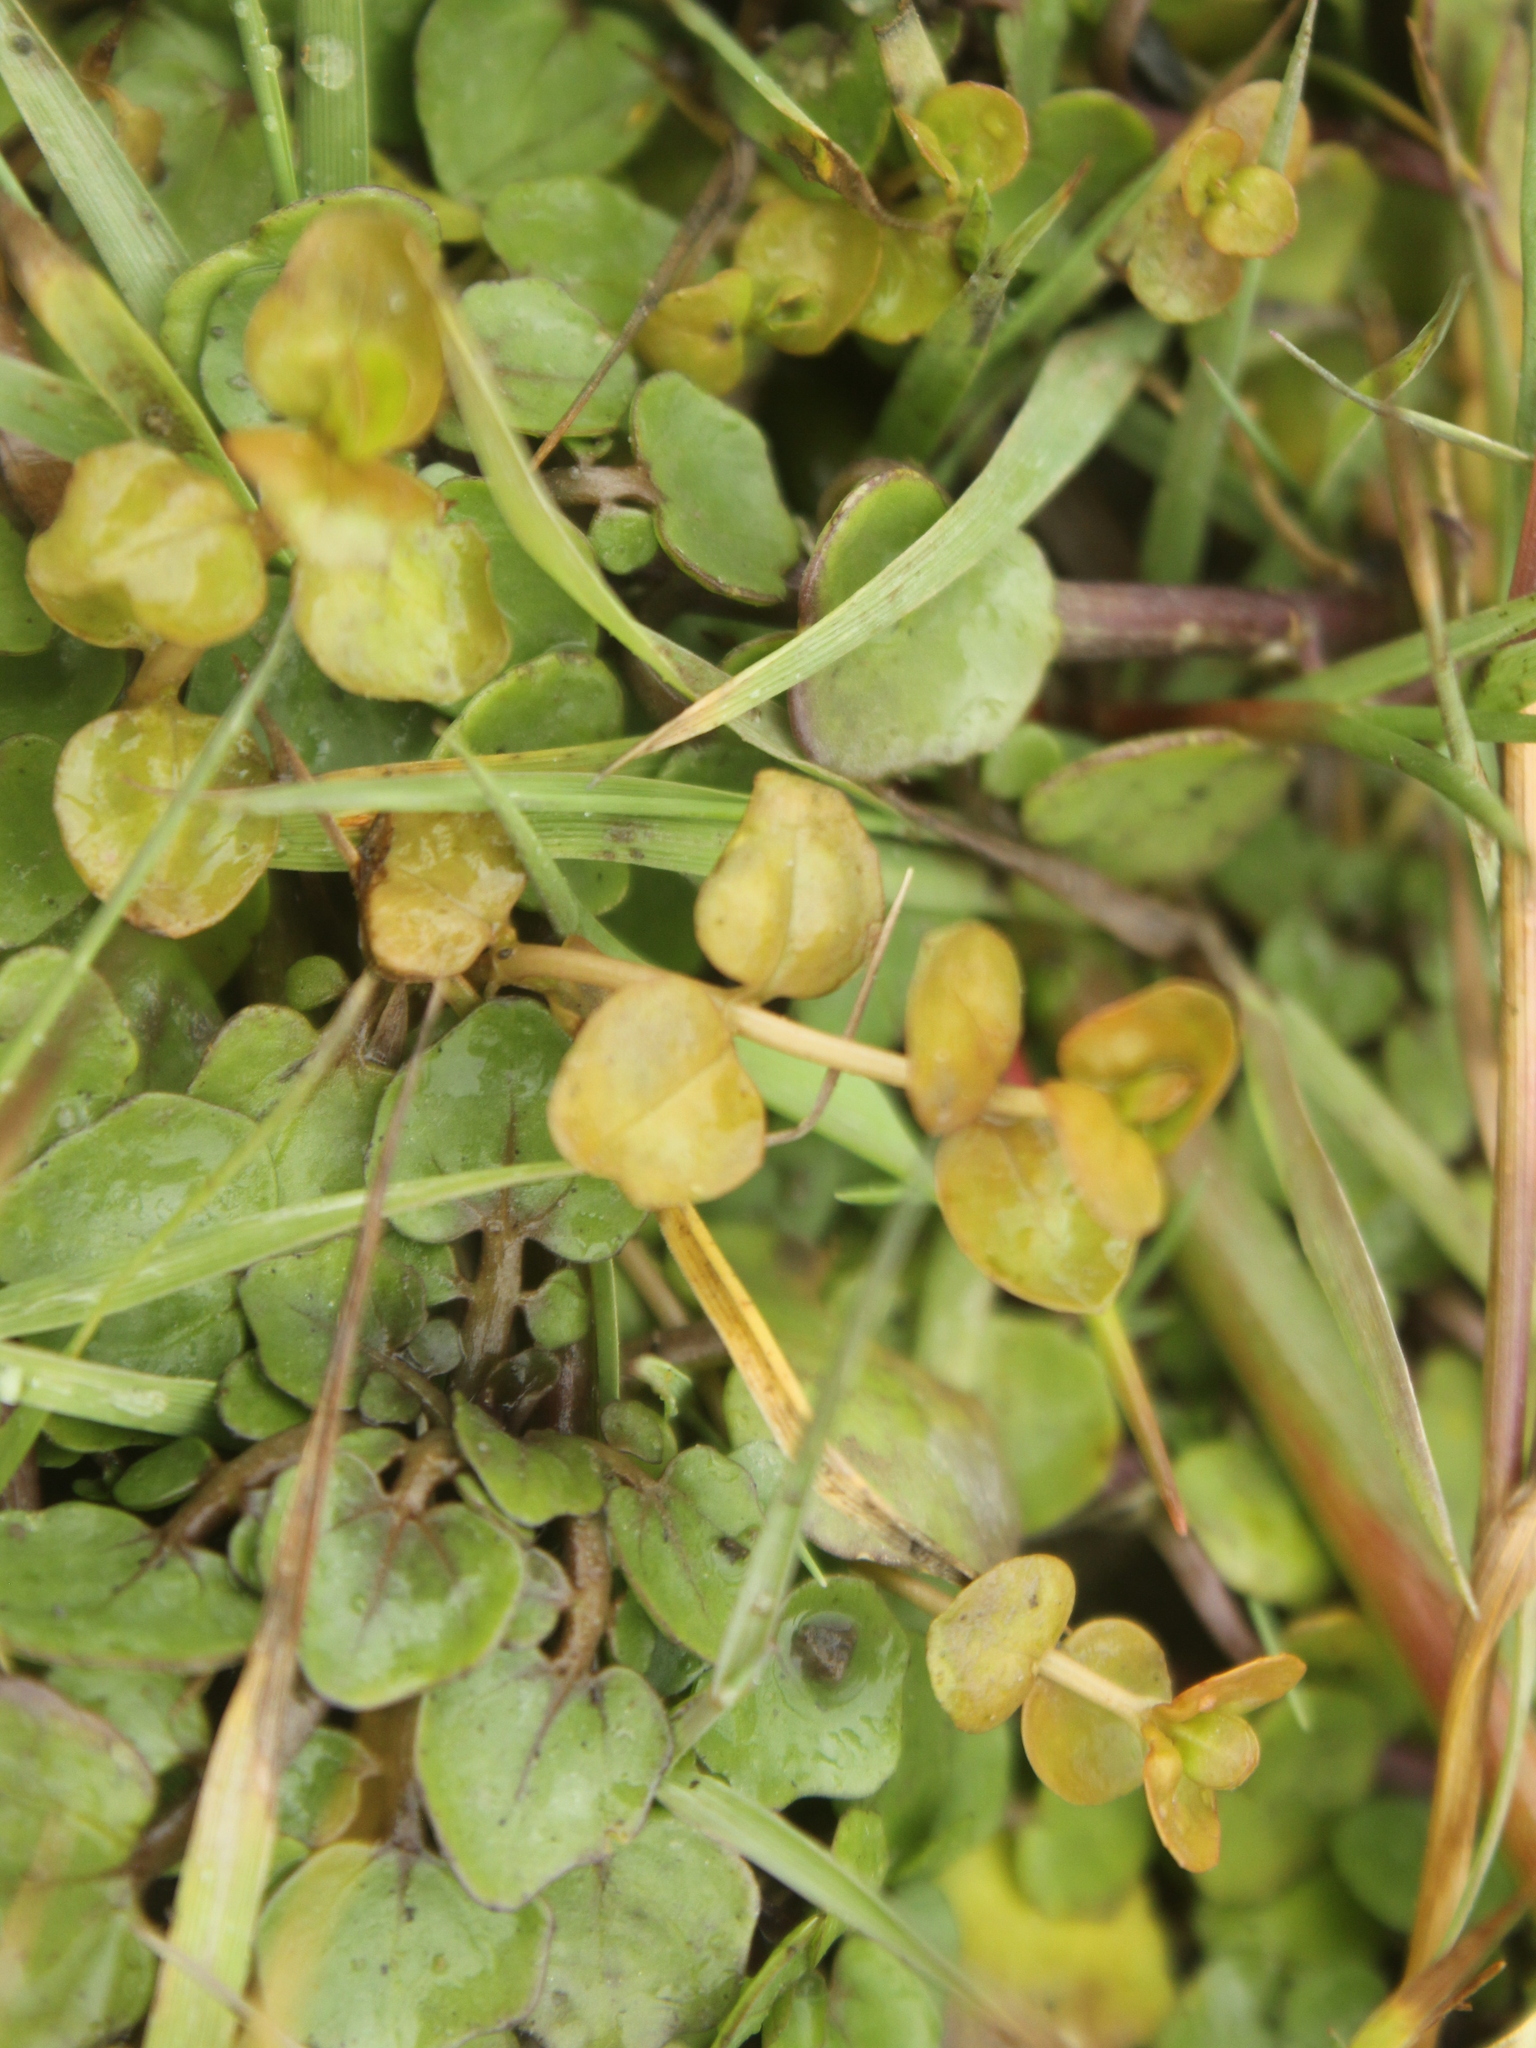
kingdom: Plantae
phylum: Tracheophyta
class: Magnoliopsida
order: Myrtales
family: Onagraceae
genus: Epilobium
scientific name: Epilobium chionanthum
